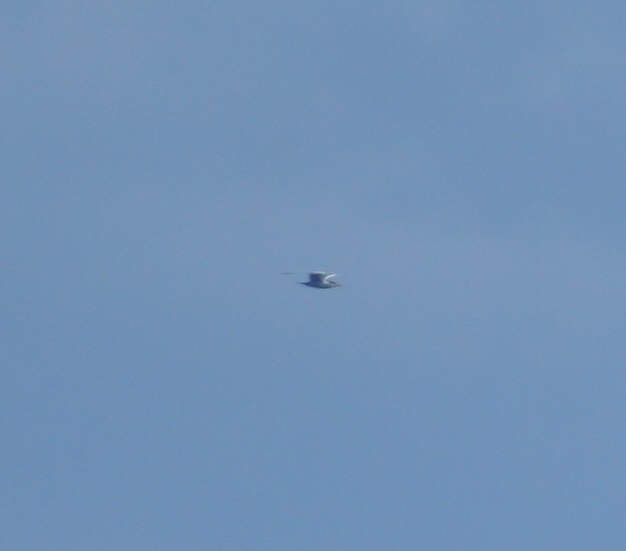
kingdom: Animalia
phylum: Chordata
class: Aves
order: Charadriiformes
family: Laridae
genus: Thalasseus
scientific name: Thalasseus bergii
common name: Greater crested tern
